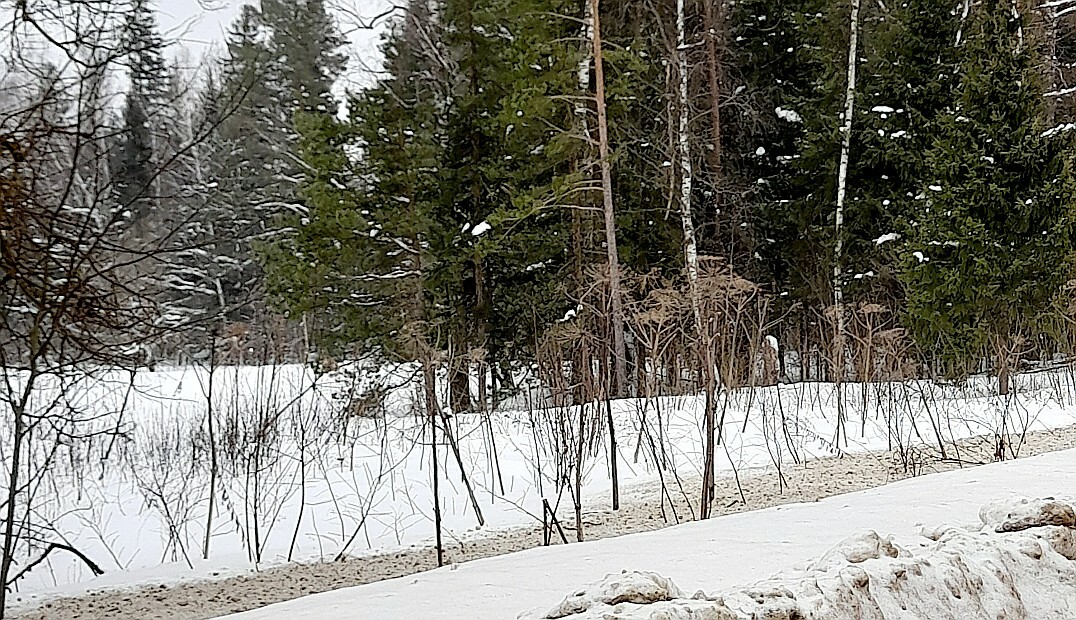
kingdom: Plantae
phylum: Tracheophyta
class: Magnoliopsida
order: Apiales
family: Apiaceae
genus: Heracleum
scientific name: Heracleum sosnowskyi
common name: Sosnowsky's hogweed
